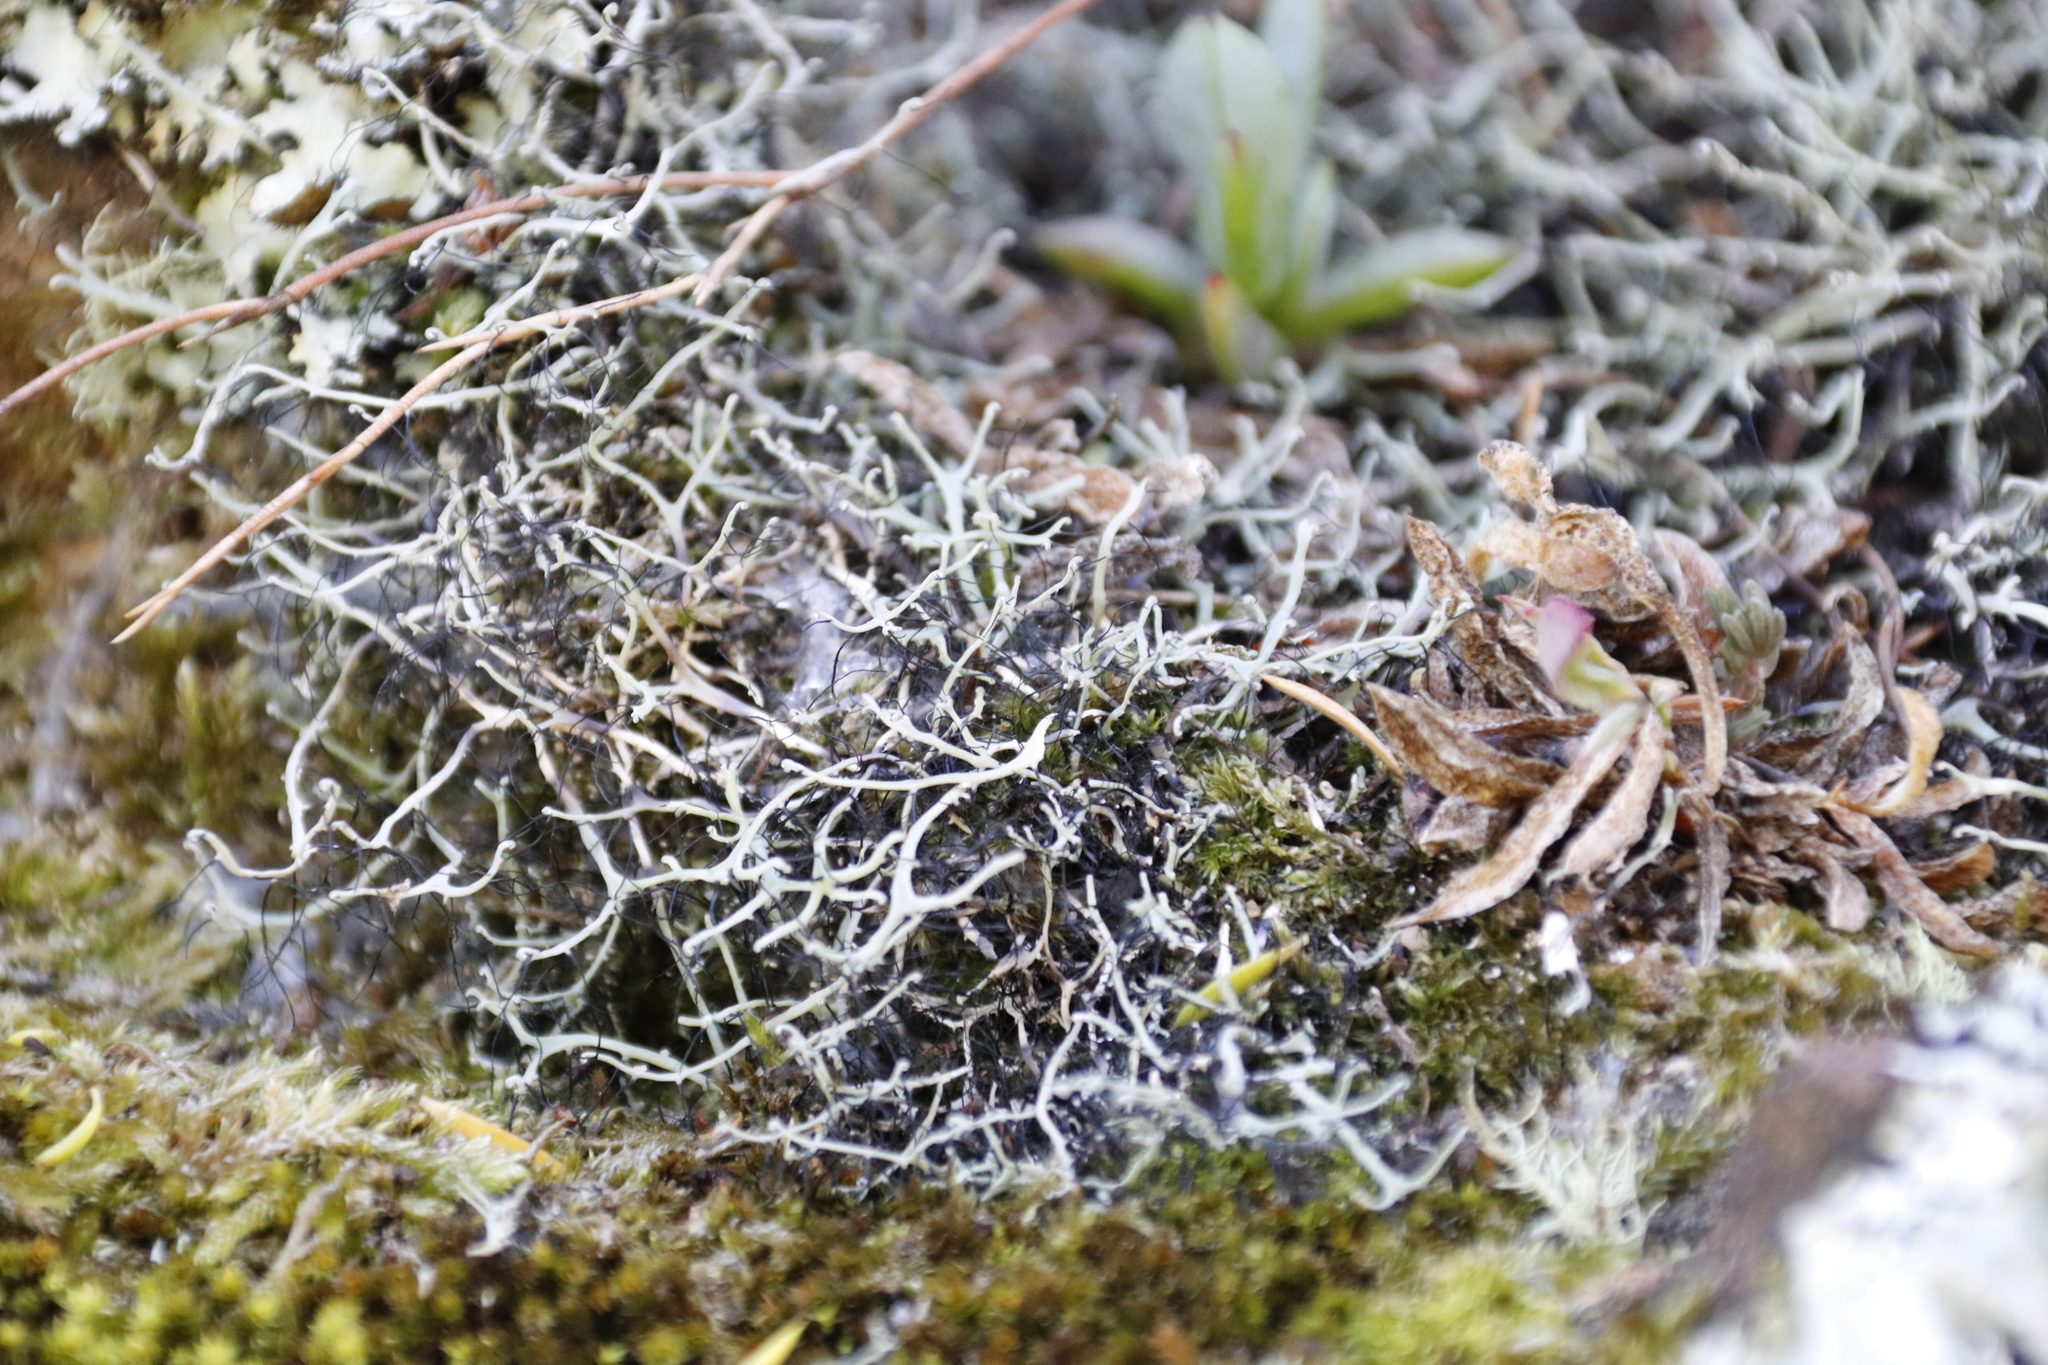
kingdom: Fungi
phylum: Ascomycota
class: Lecanoromycetes
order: Caliciales
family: Physciaceae
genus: Leucodermia
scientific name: Leucodermia leucomelos
